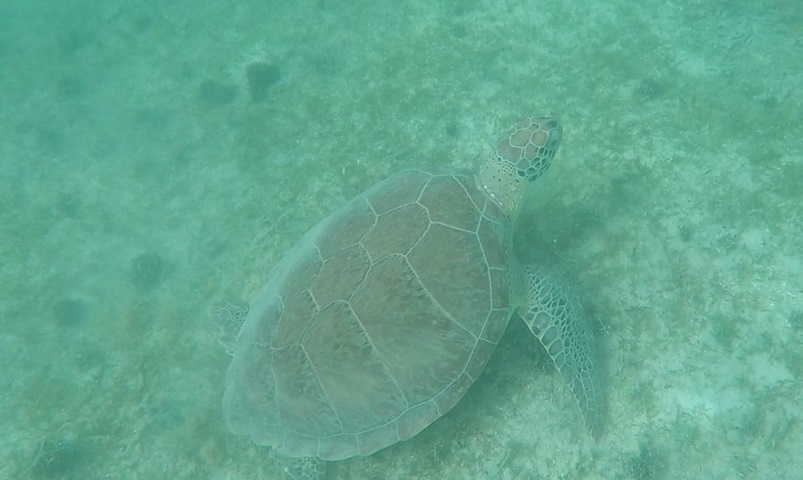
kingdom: Animalia
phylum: Chordata
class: Testudines
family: Cheloniidae
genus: Chelonia
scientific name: Chelonia mydas
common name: Green turtle
